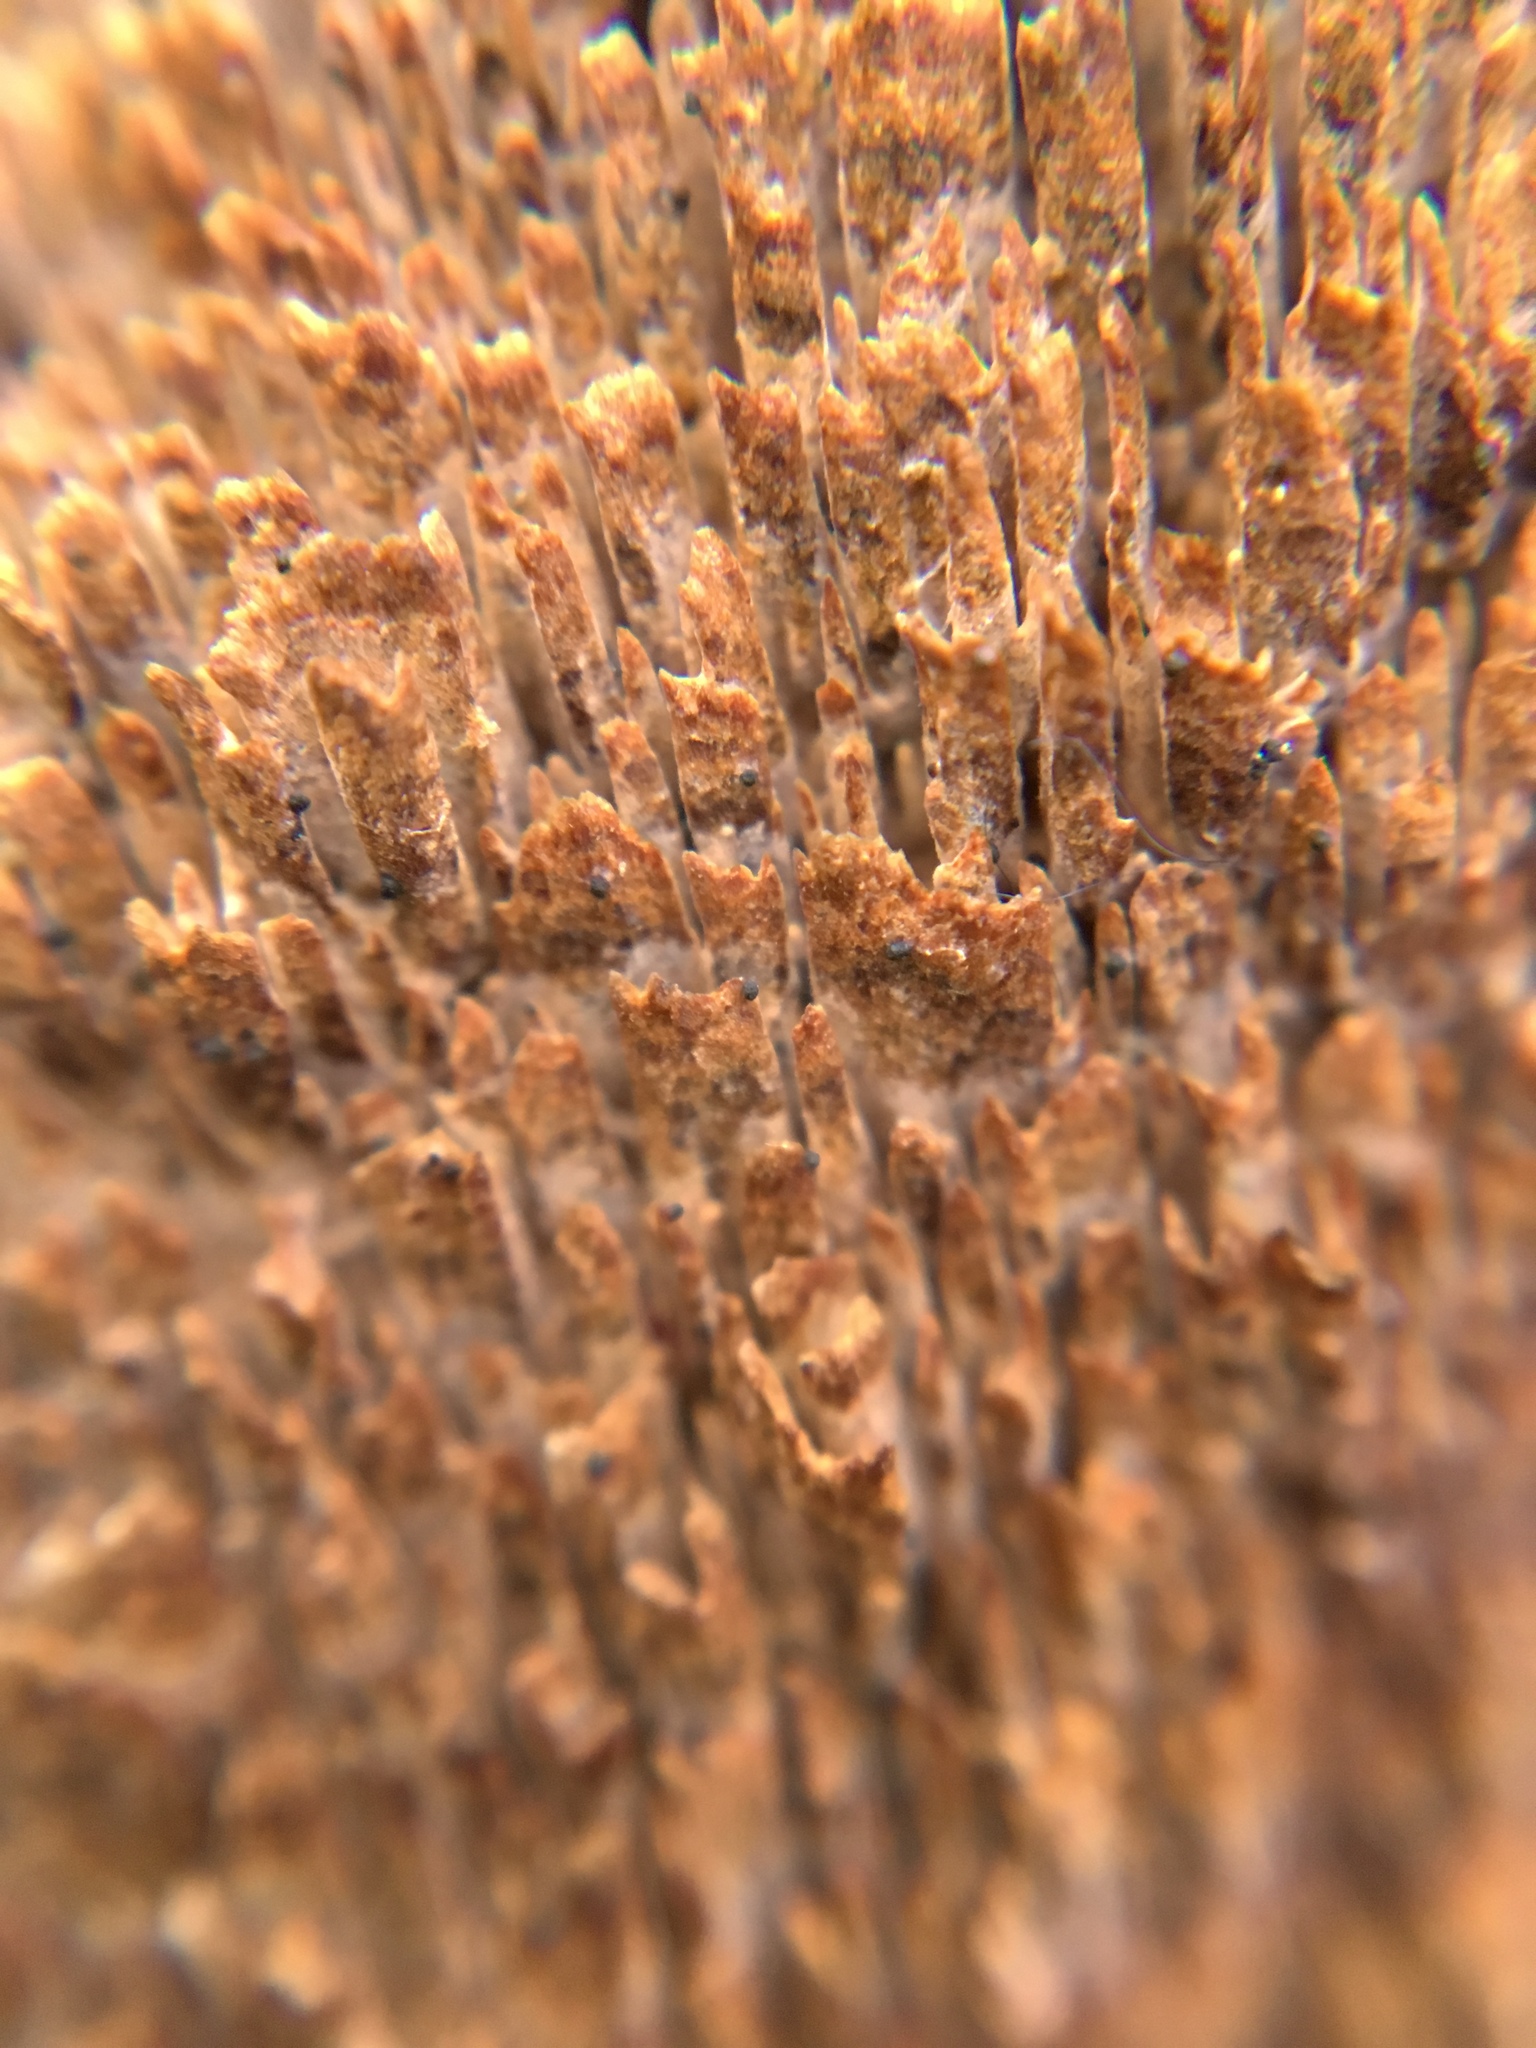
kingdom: Fungi
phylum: Basidiomycota
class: Agaricomycetes
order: Hymenochaetales
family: Hymenochaetaceae
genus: Hydnoporia
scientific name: Hydnoporia olivacea
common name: Brown-toothed crust fungus
